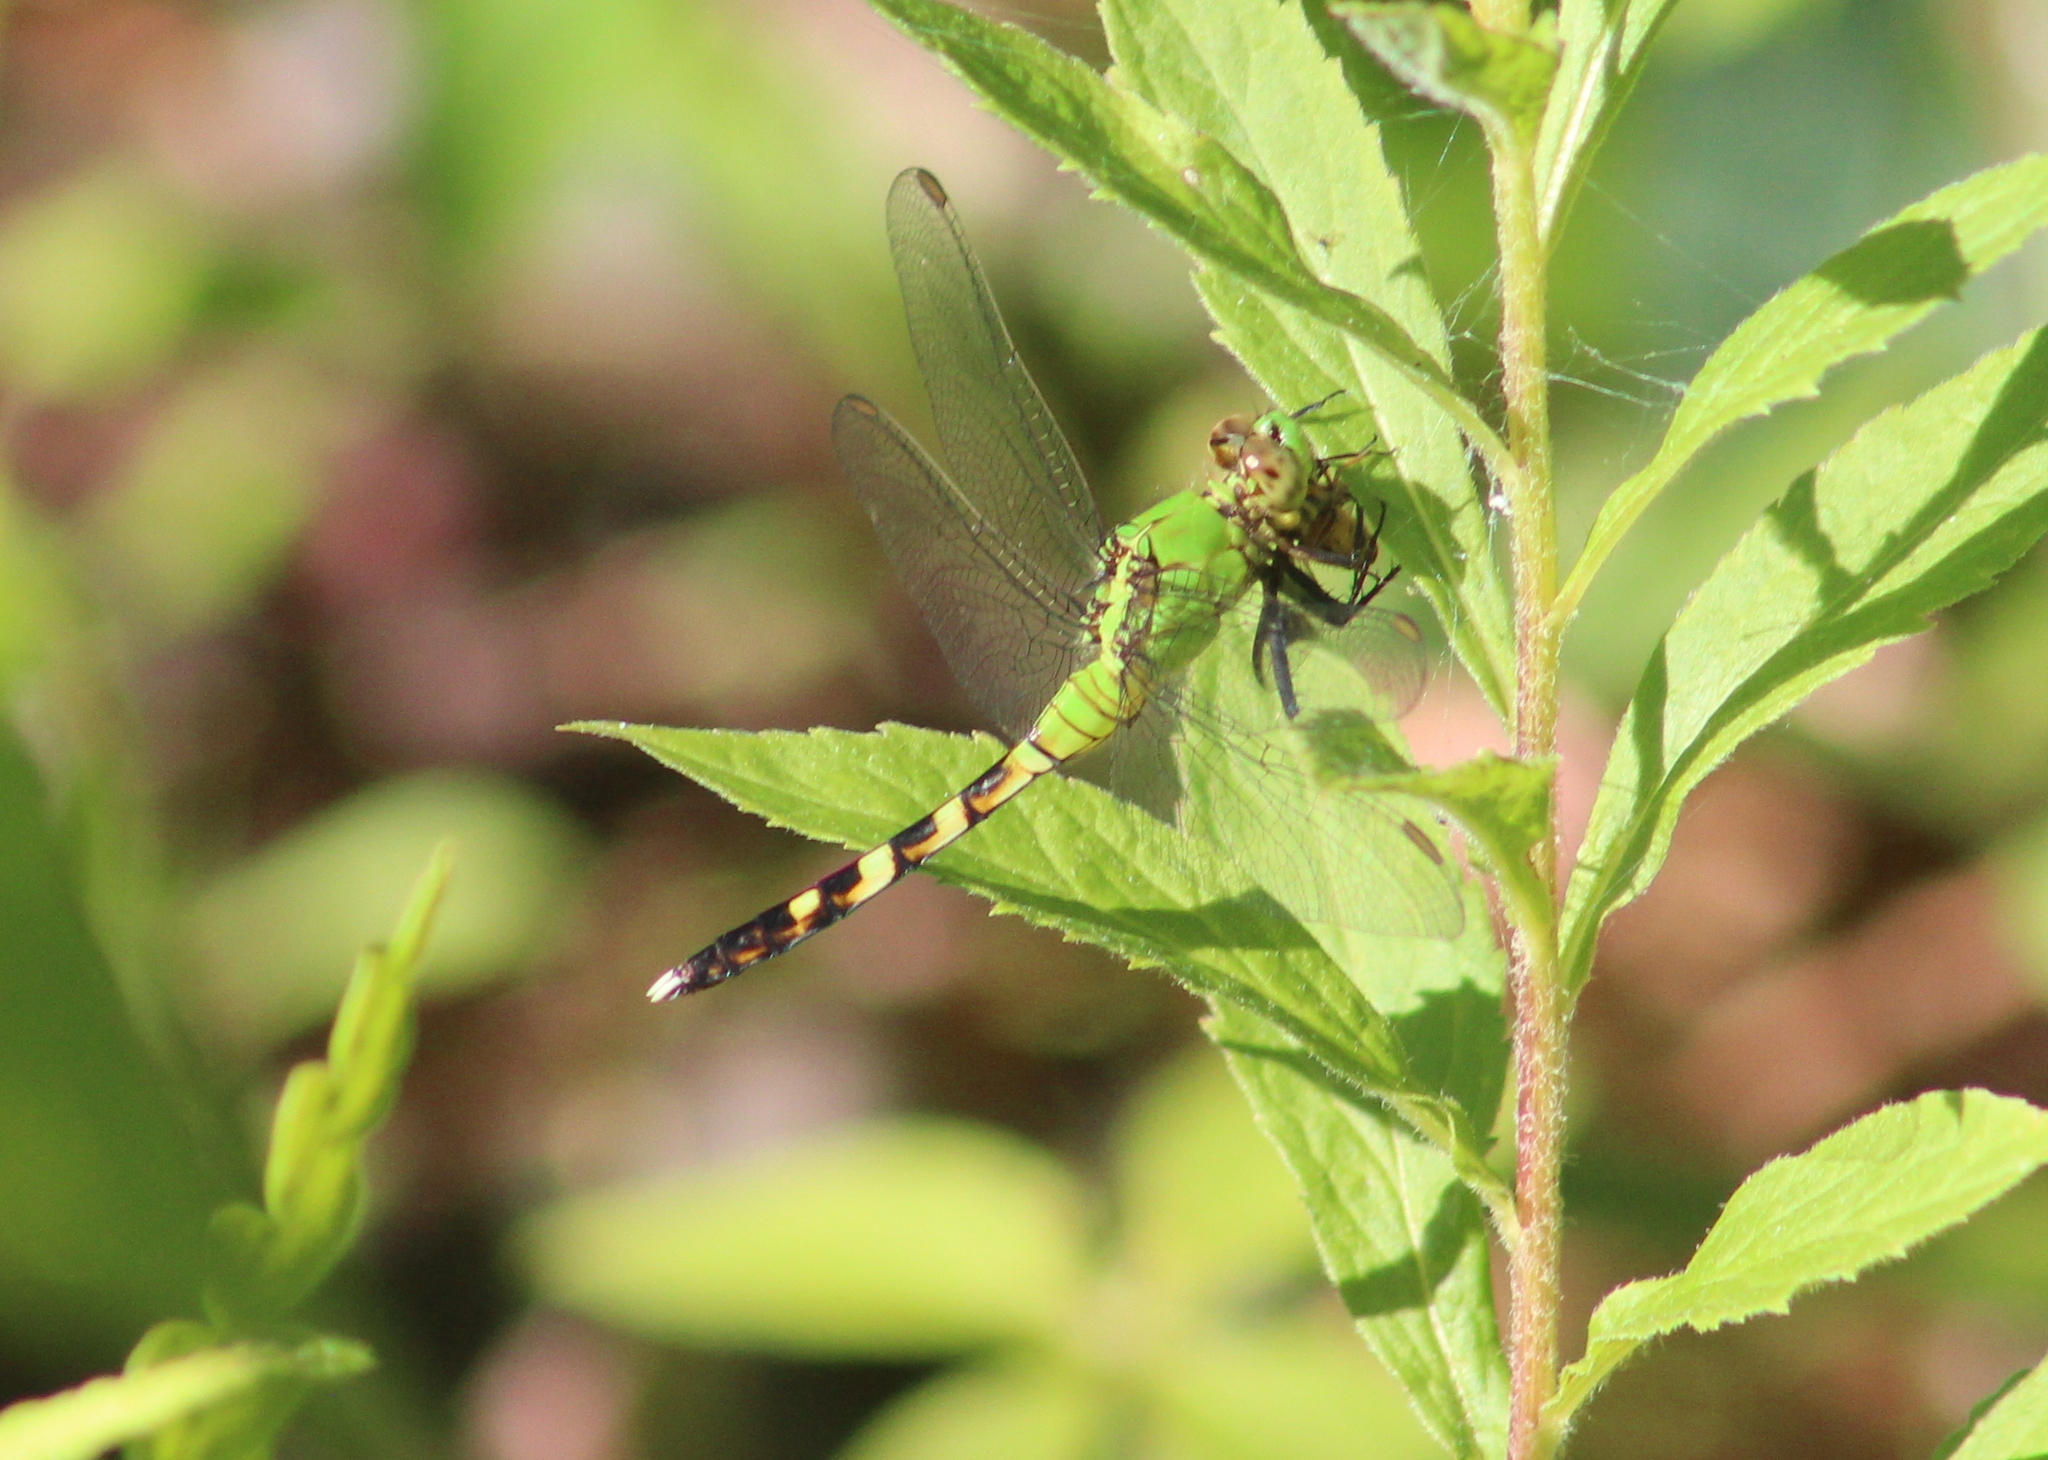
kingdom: Animalia
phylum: Arthropoda
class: Insecta
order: Odonata
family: Libellulidae
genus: Erythemis
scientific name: Erythemis simplicicollis
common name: Eastern pondhawk
